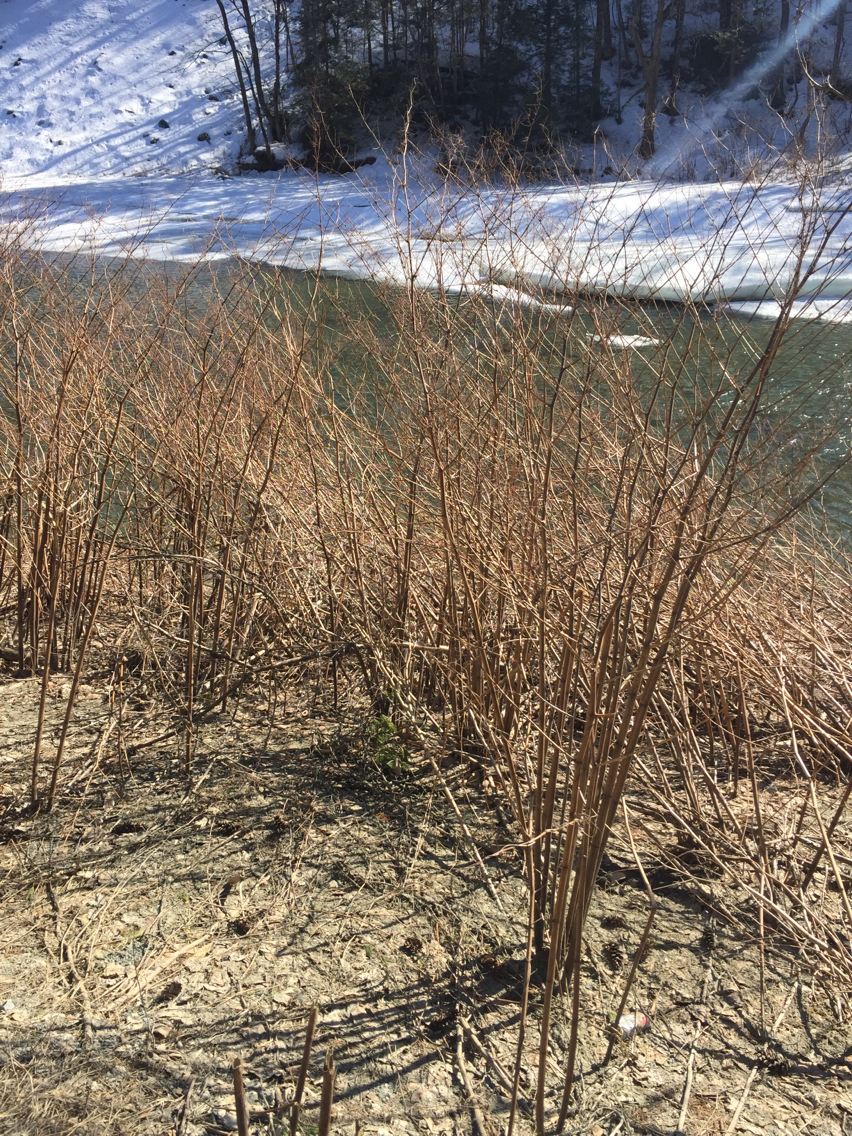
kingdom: Plantae
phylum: Tracheophyta
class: Magnoliopsida
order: Caryophyllales
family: Polygonaceae
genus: Reynoutria
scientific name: Reynoutria japonica
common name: Japanese knotweed
